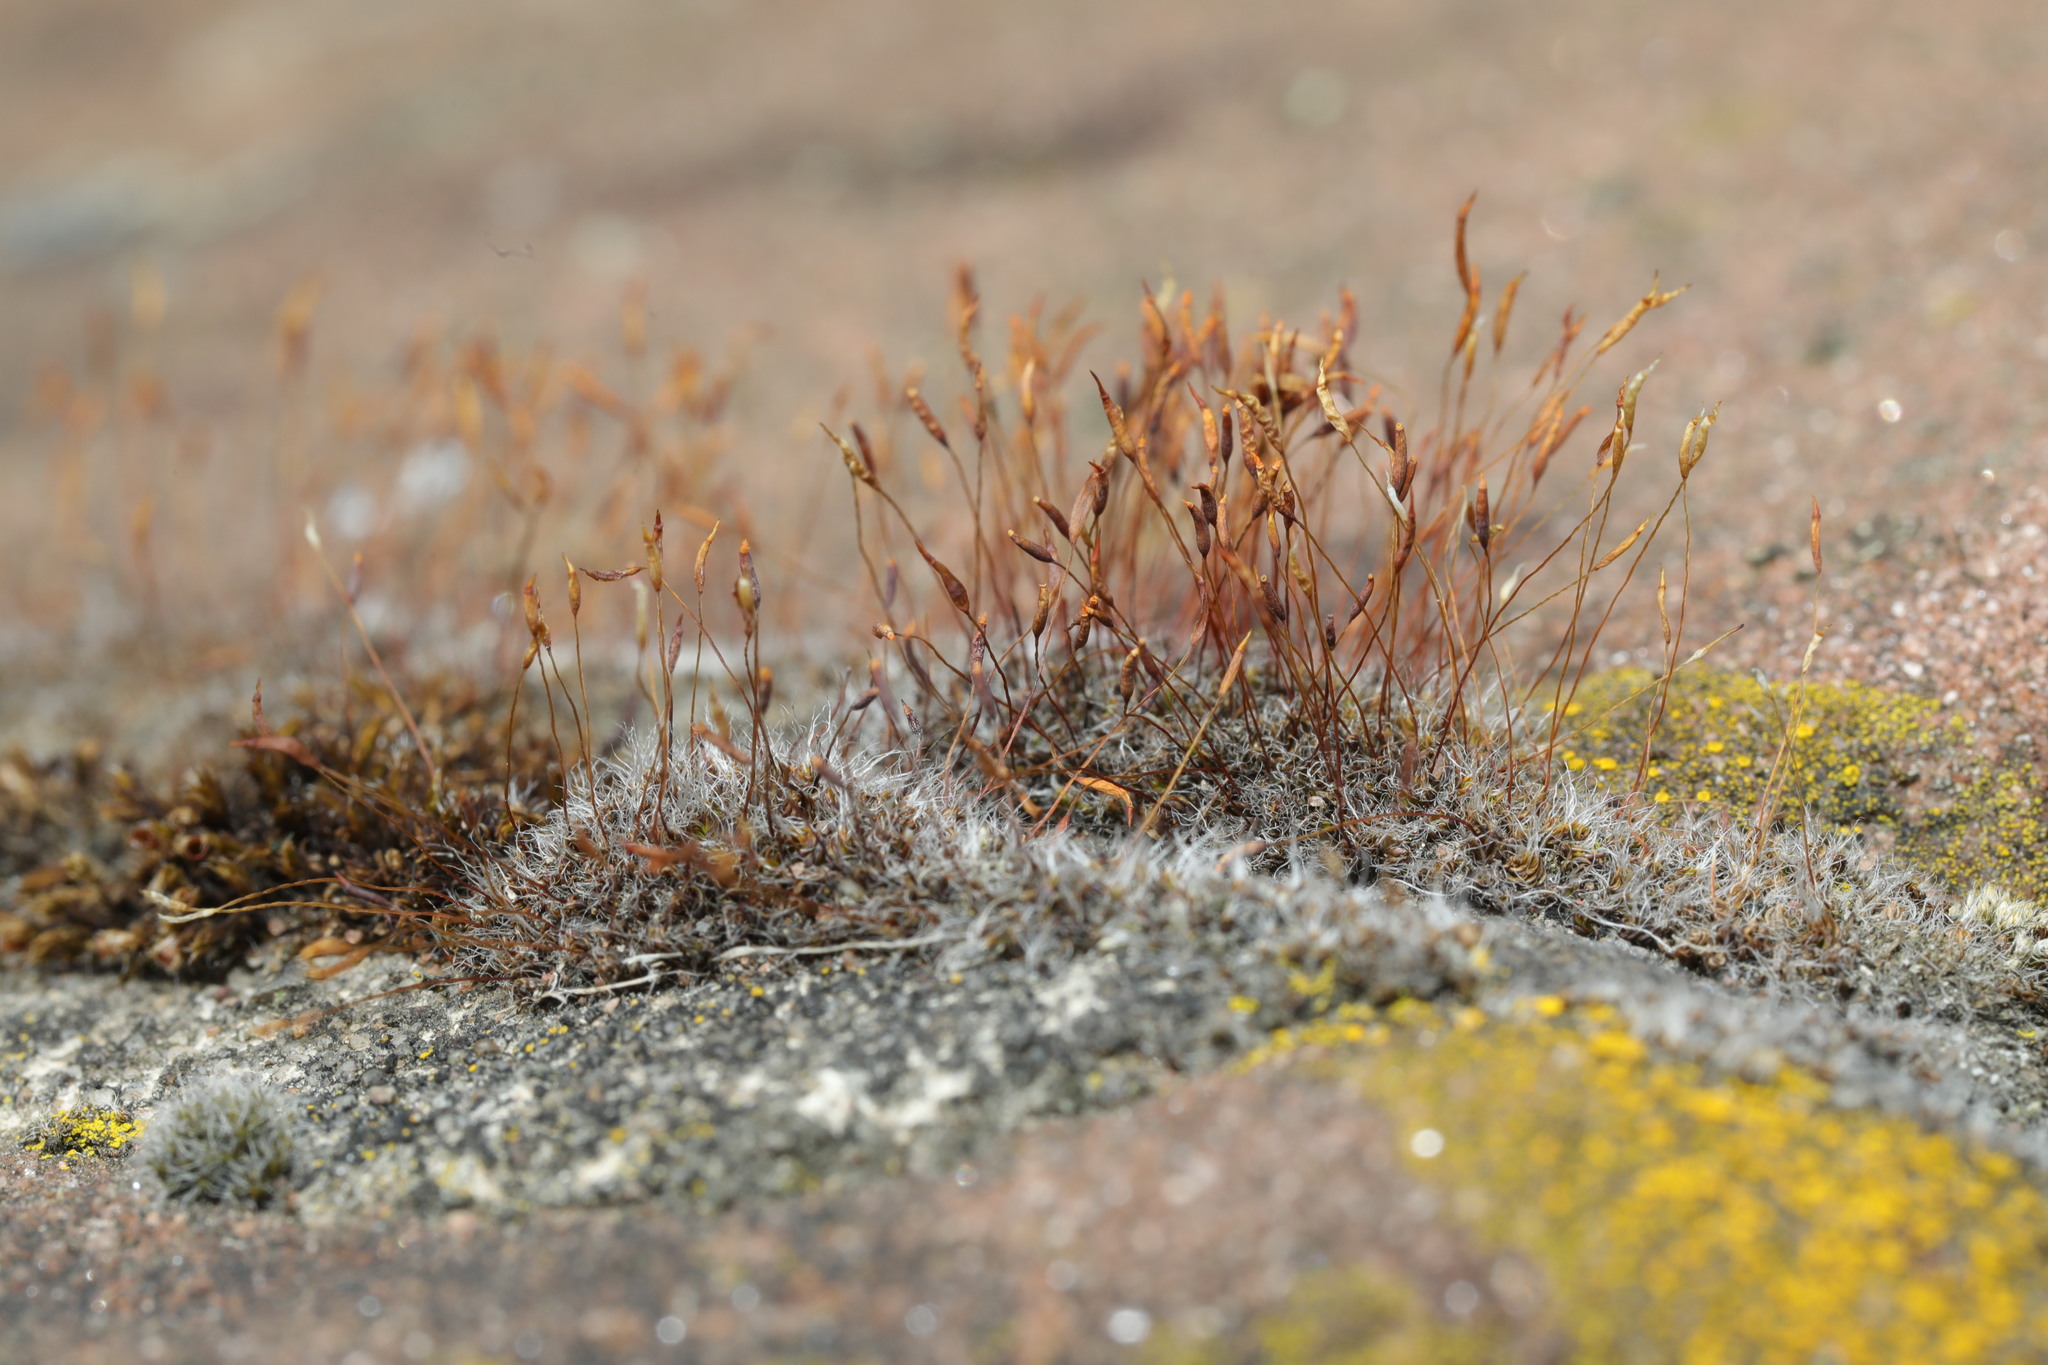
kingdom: Plantae
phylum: Bryophyta
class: Bryopsida
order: Pottiales
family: Pottiaceae
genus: Tortula
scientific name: Tortula muralis
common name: Wall screw-moss
